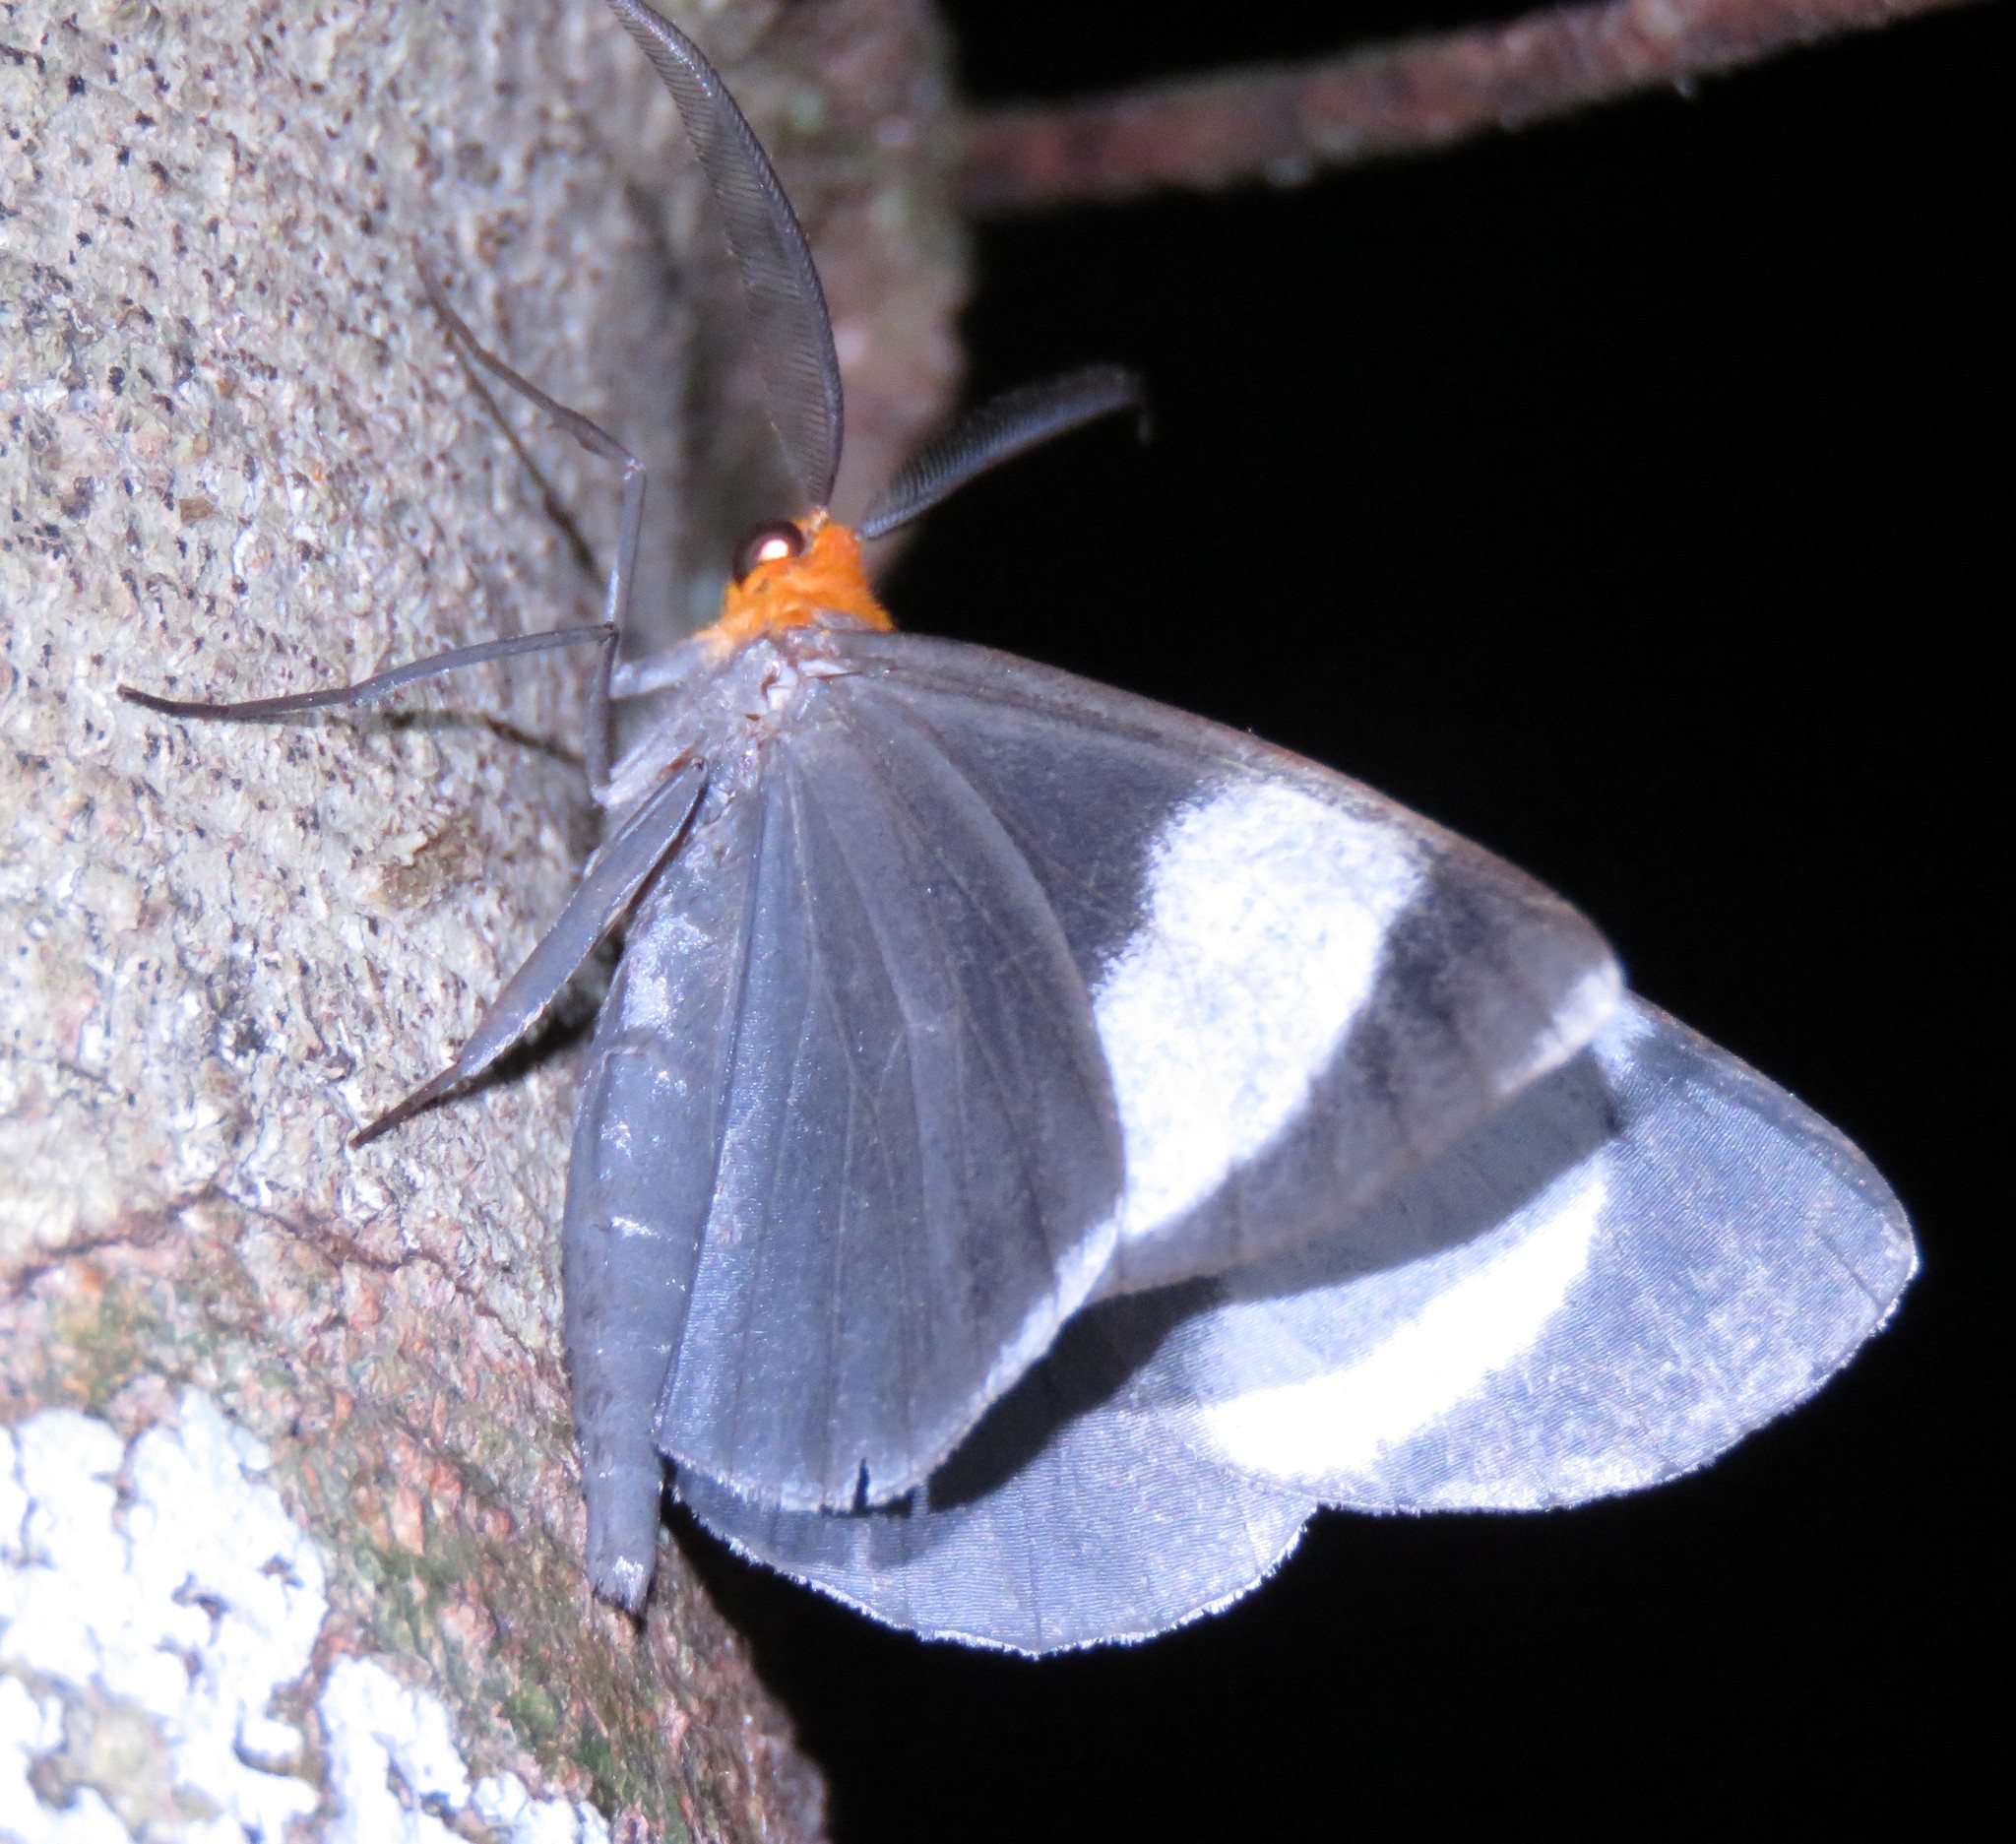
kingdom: Animalia
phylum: Arthropoda
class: Insecta
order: Lepidoptera
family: Geometridae
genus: Simena
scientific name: Simena luctifera
